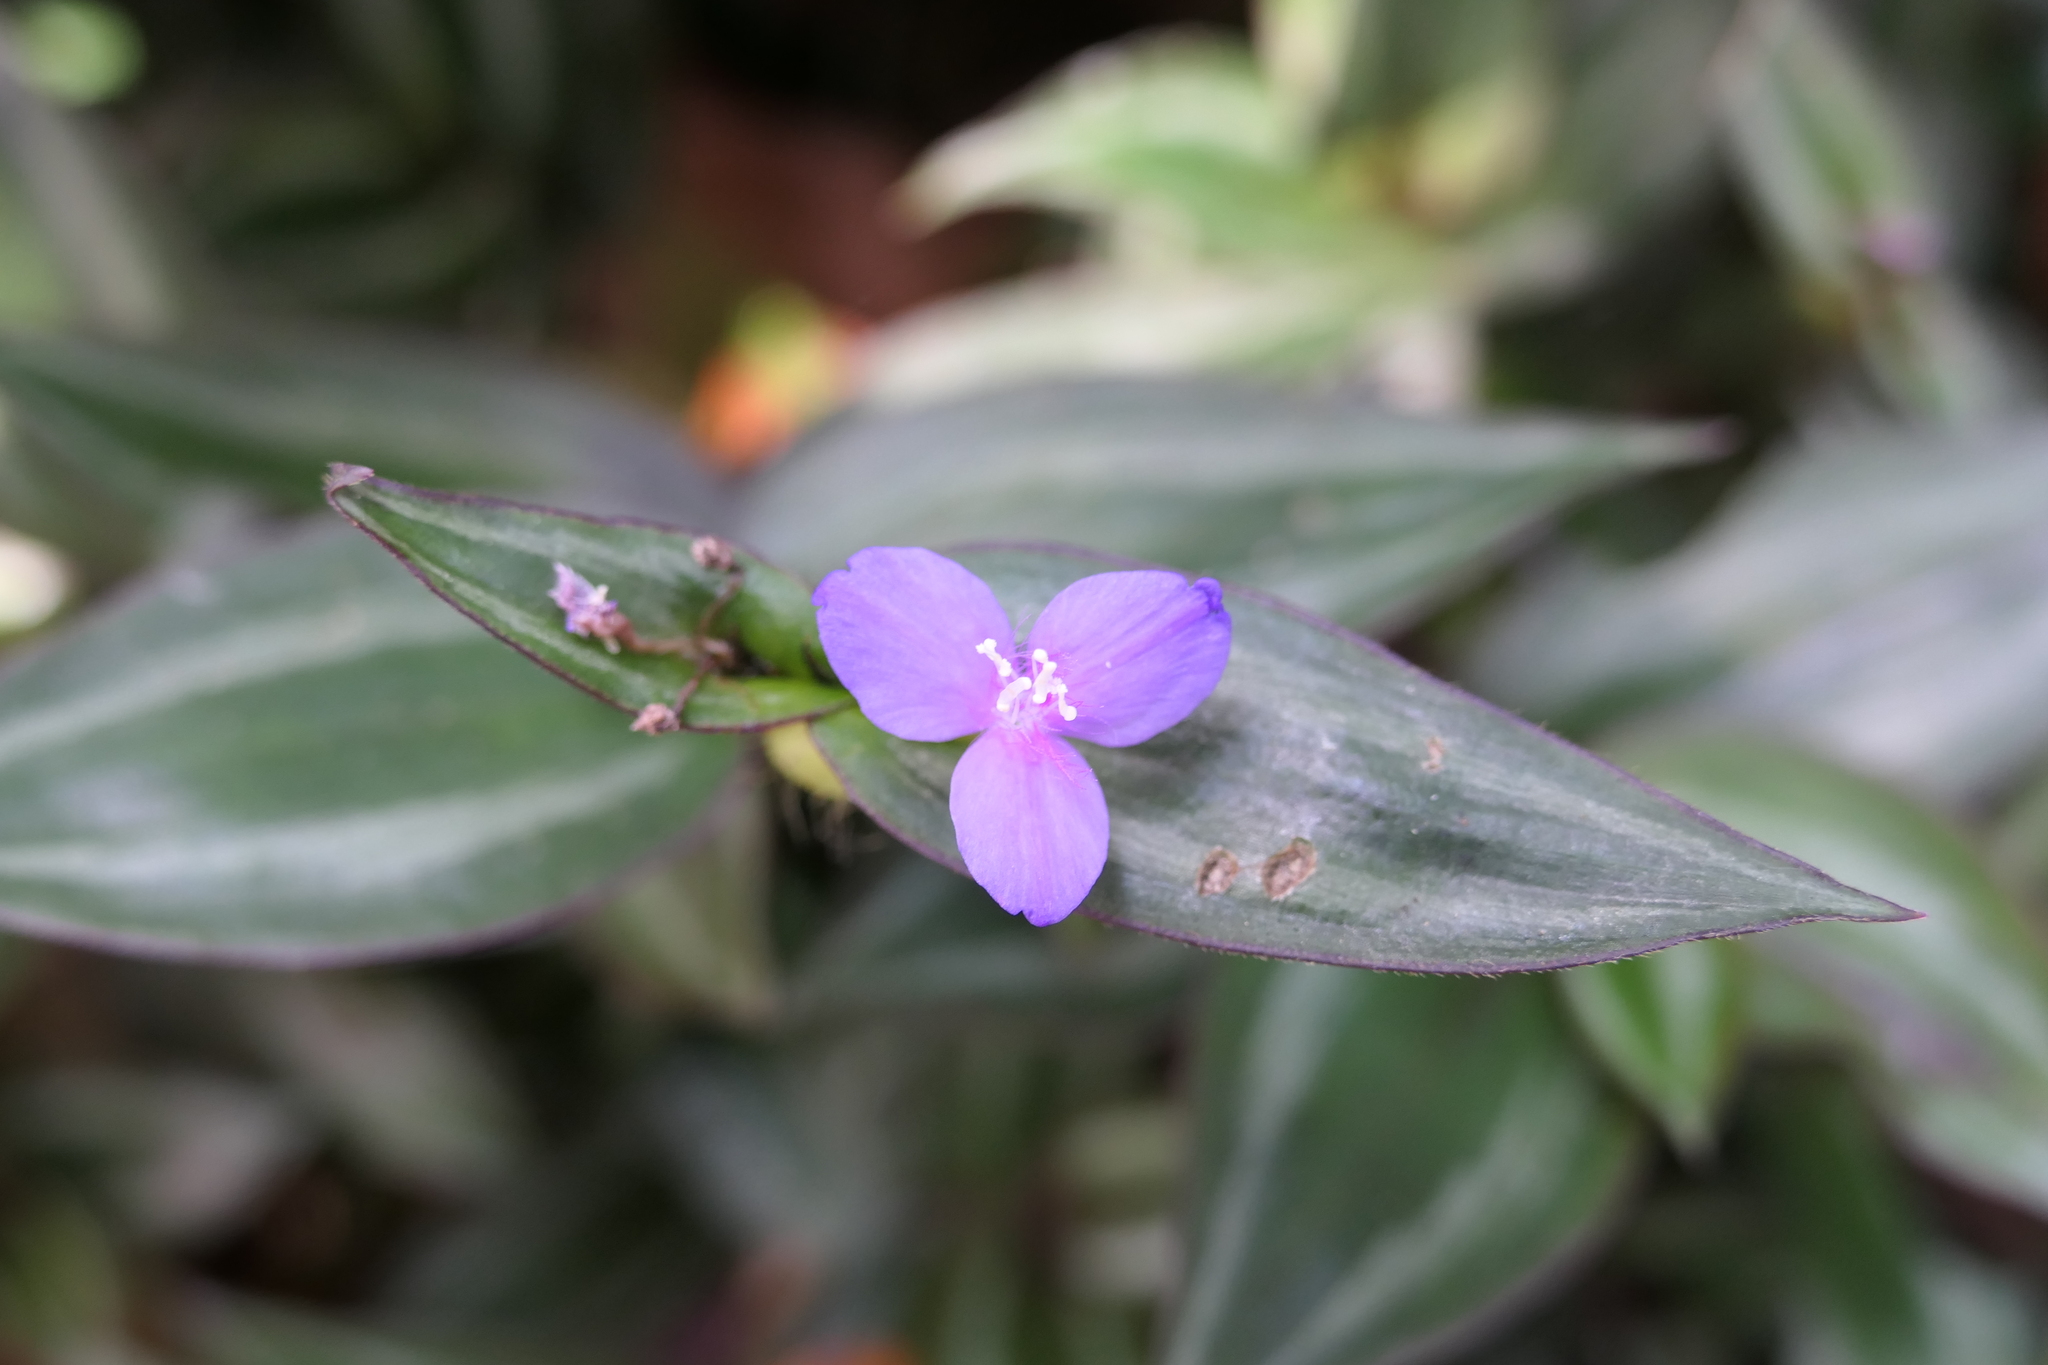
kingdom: Plantae
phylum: Tracheophyta
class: Liliopsida
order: Commelinales
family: Commelinaceae
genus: Tradescantia
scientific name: Tradescantia zebrina
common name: Inchplant
